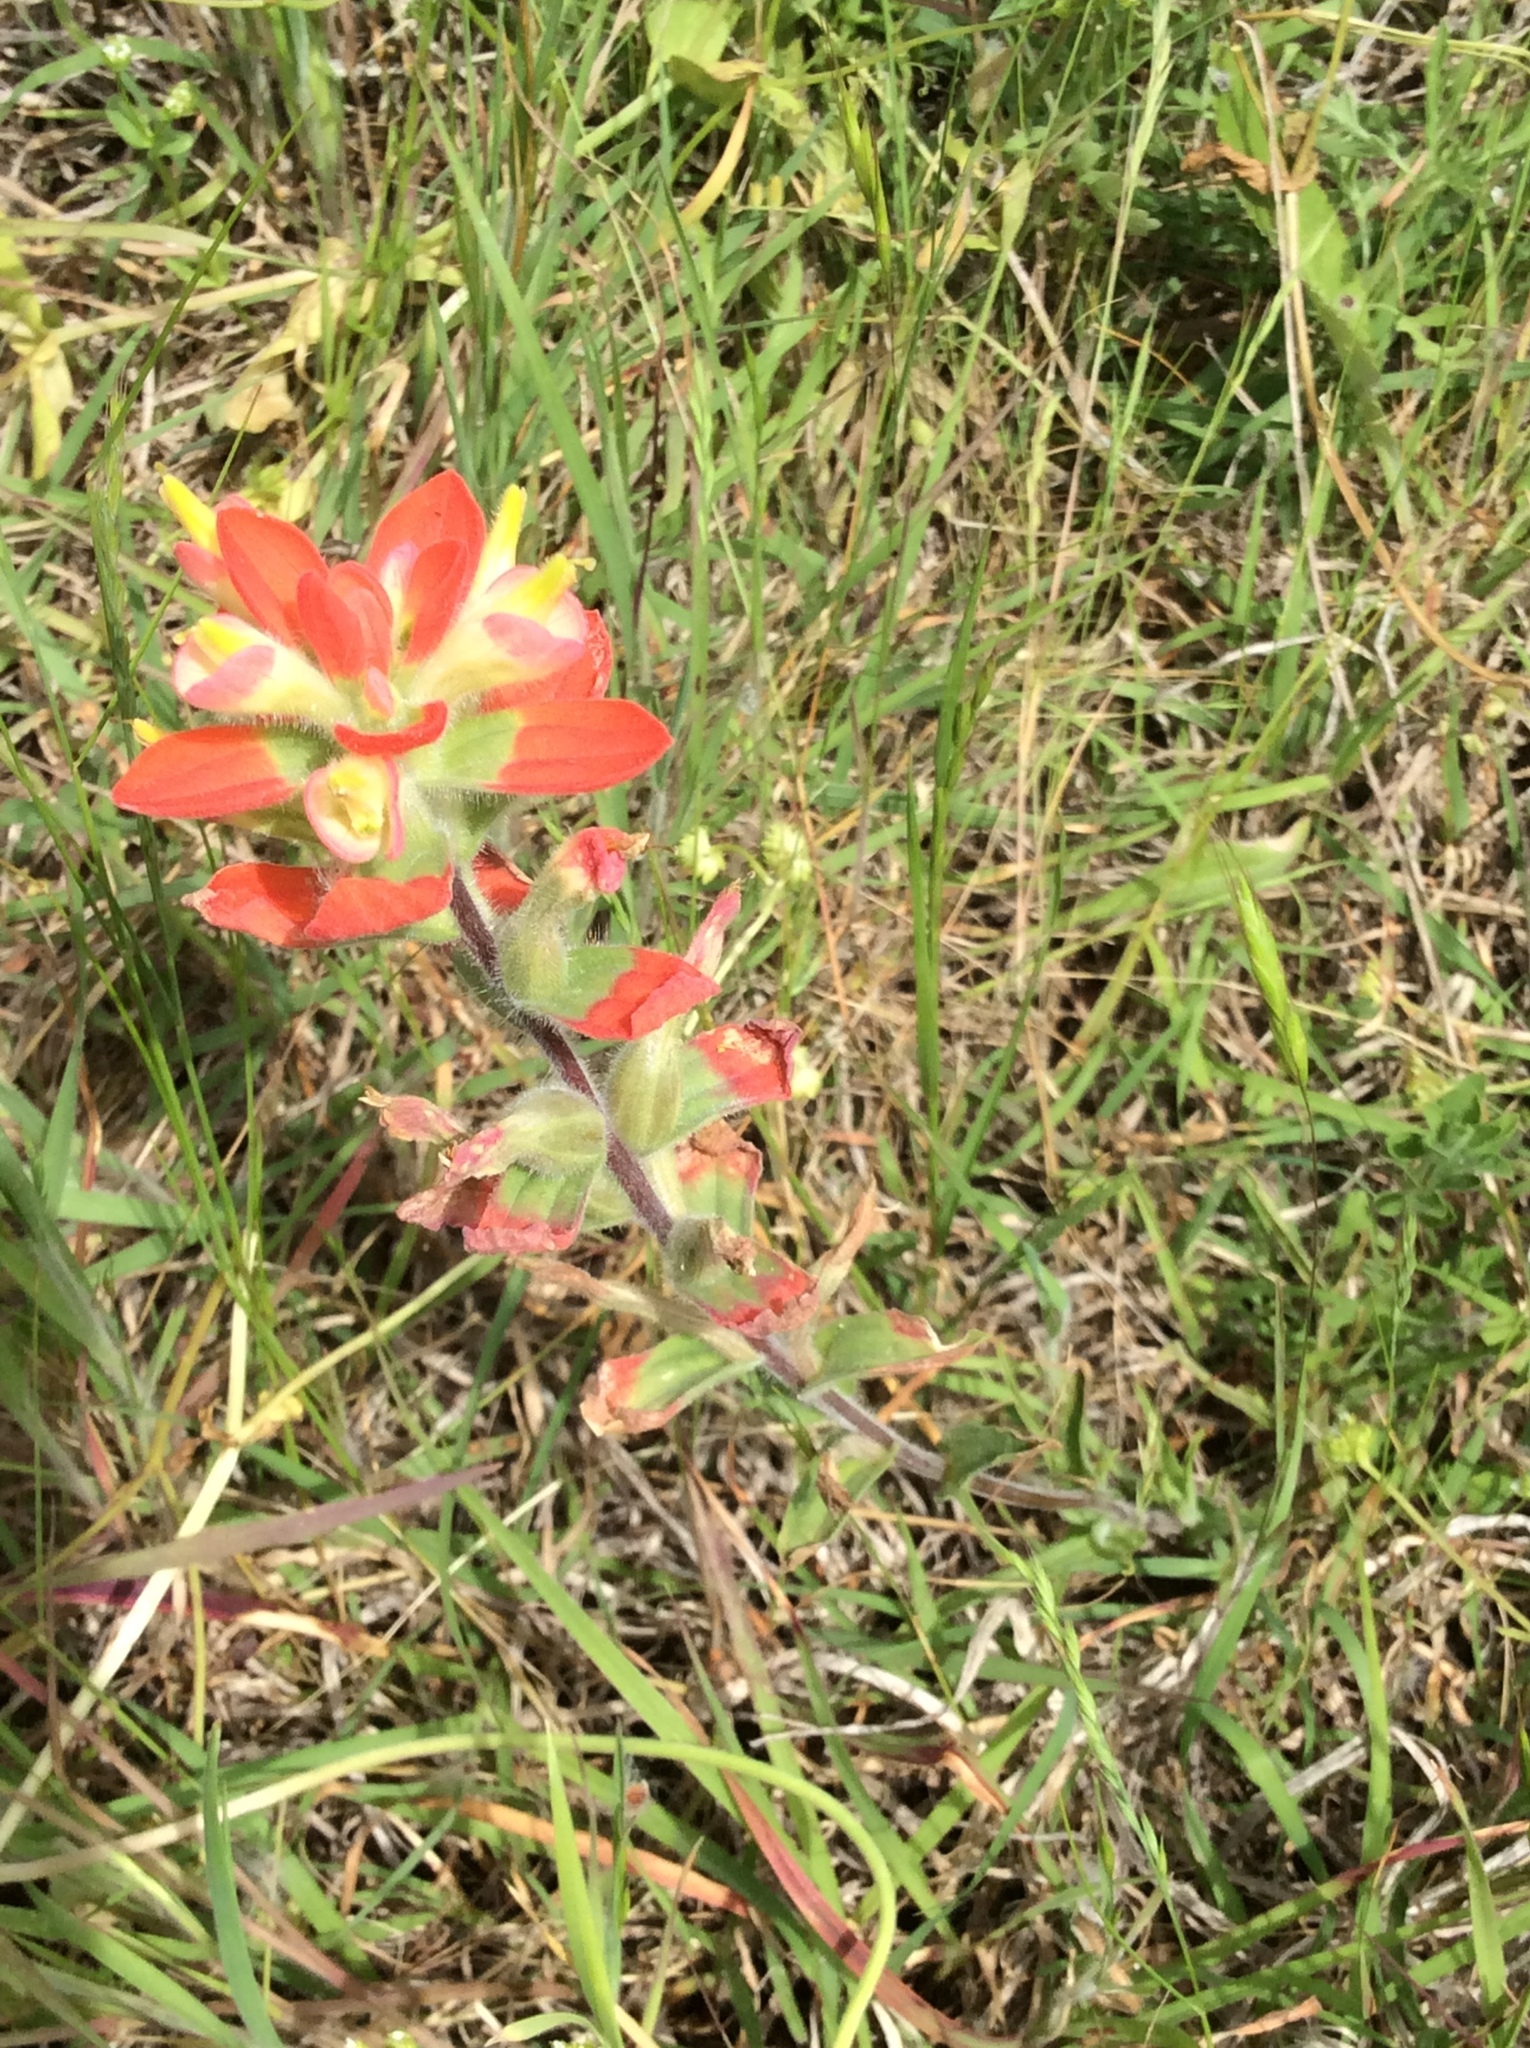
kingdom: Plantae
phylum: Tracheophyta
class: Magnoliopsida
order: Lamiales
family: Orobanchaceae
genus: Castilleja
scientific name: Castilleja indivisa
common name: Texas paintbrush
